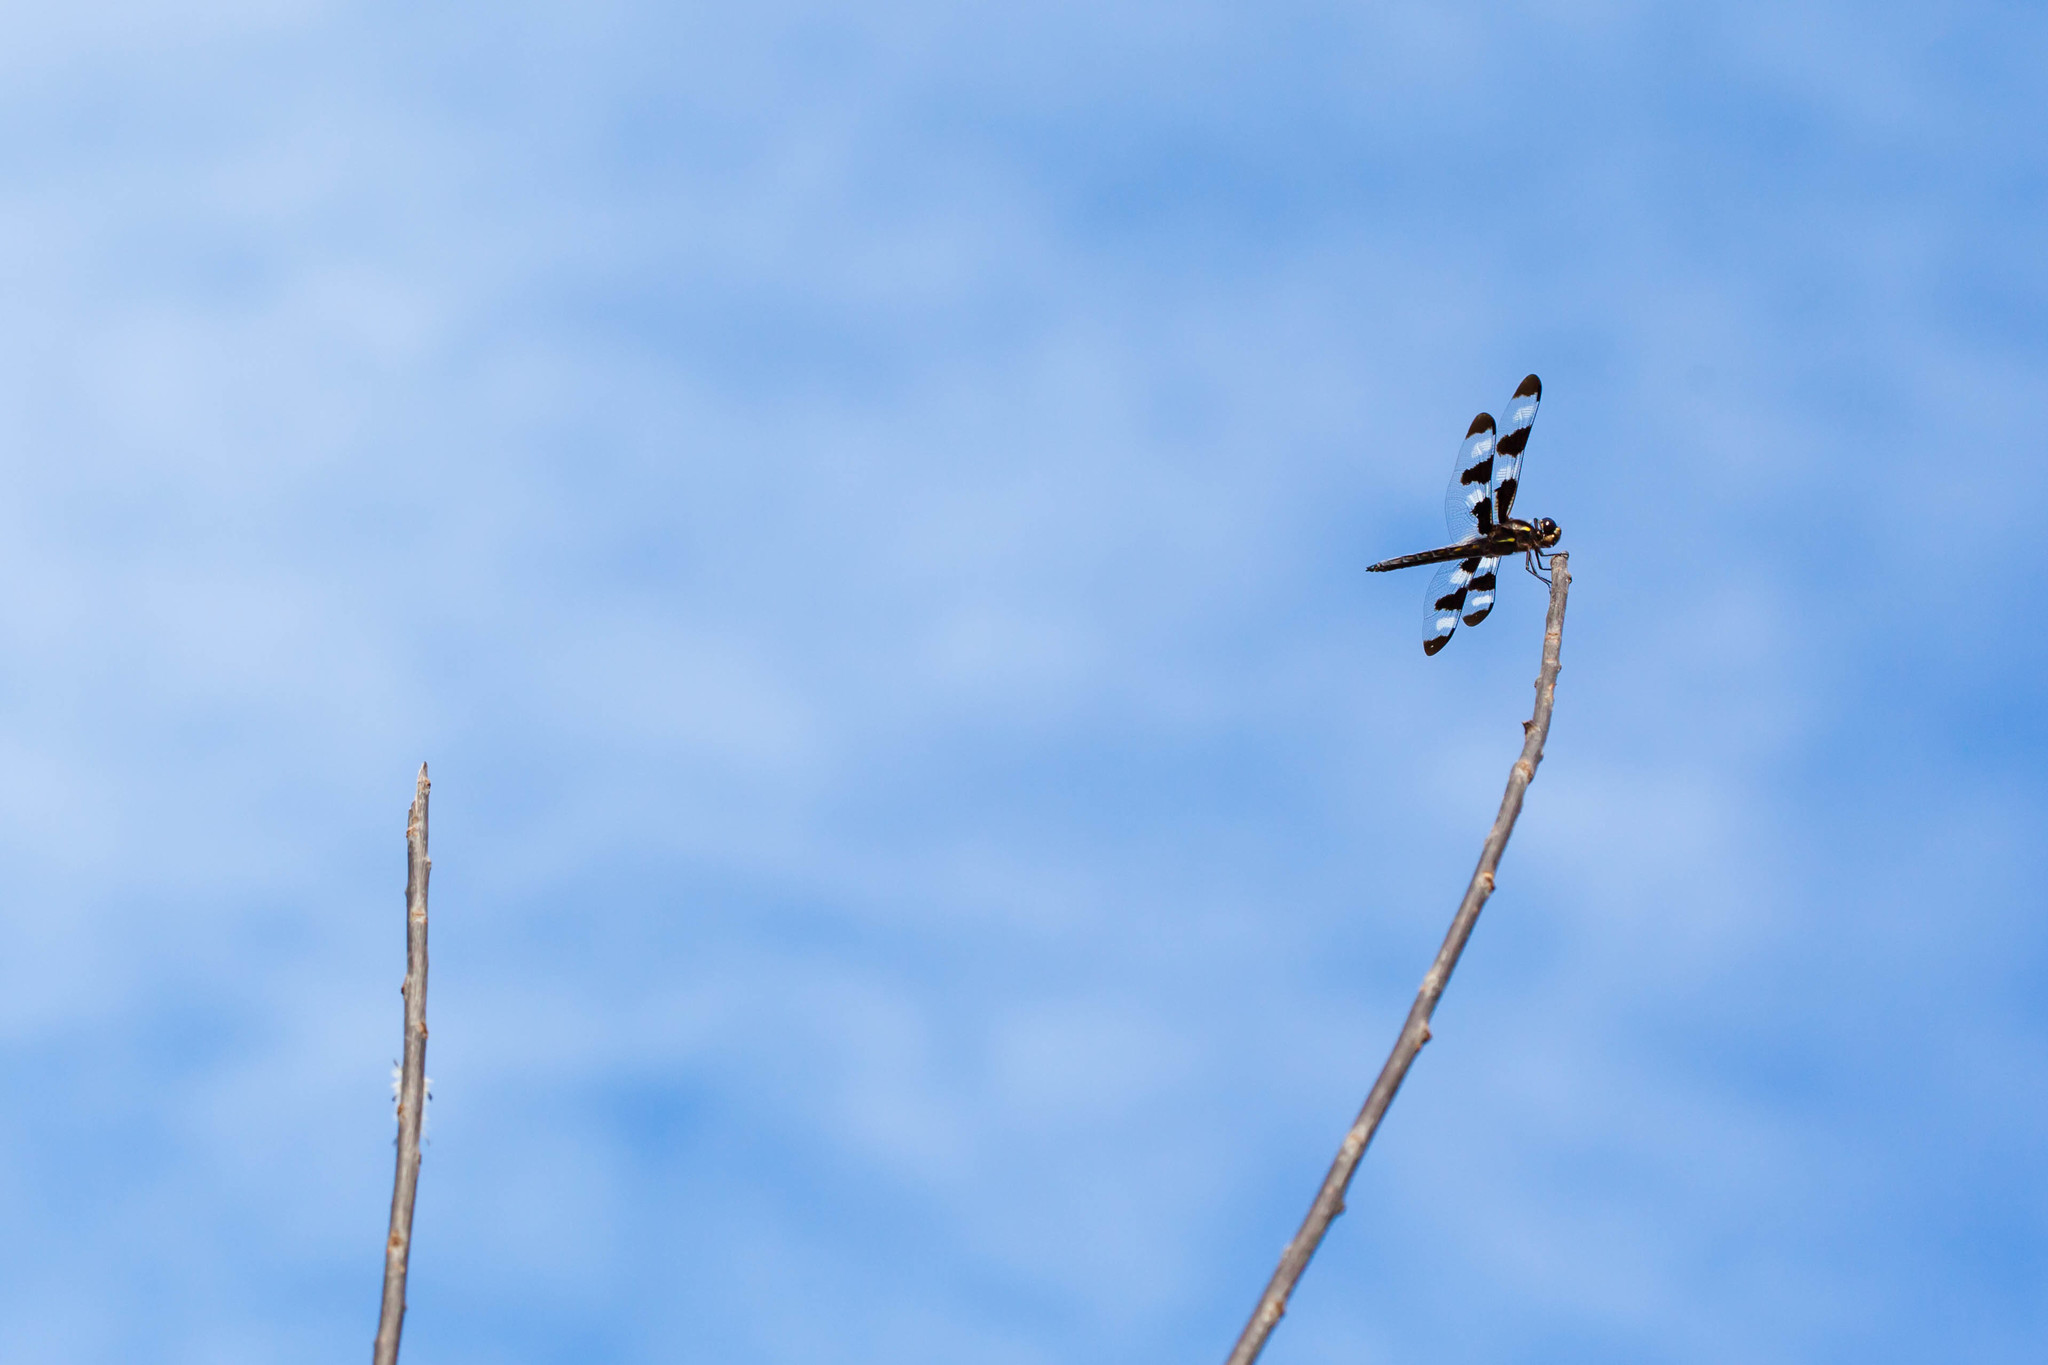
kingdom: Animalia
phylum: Arthropoda
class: Insecta
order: Odonata
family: Libellulidae
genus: Libellula
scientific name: Libellula pulchella
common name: Twelve-spotted skimmer
